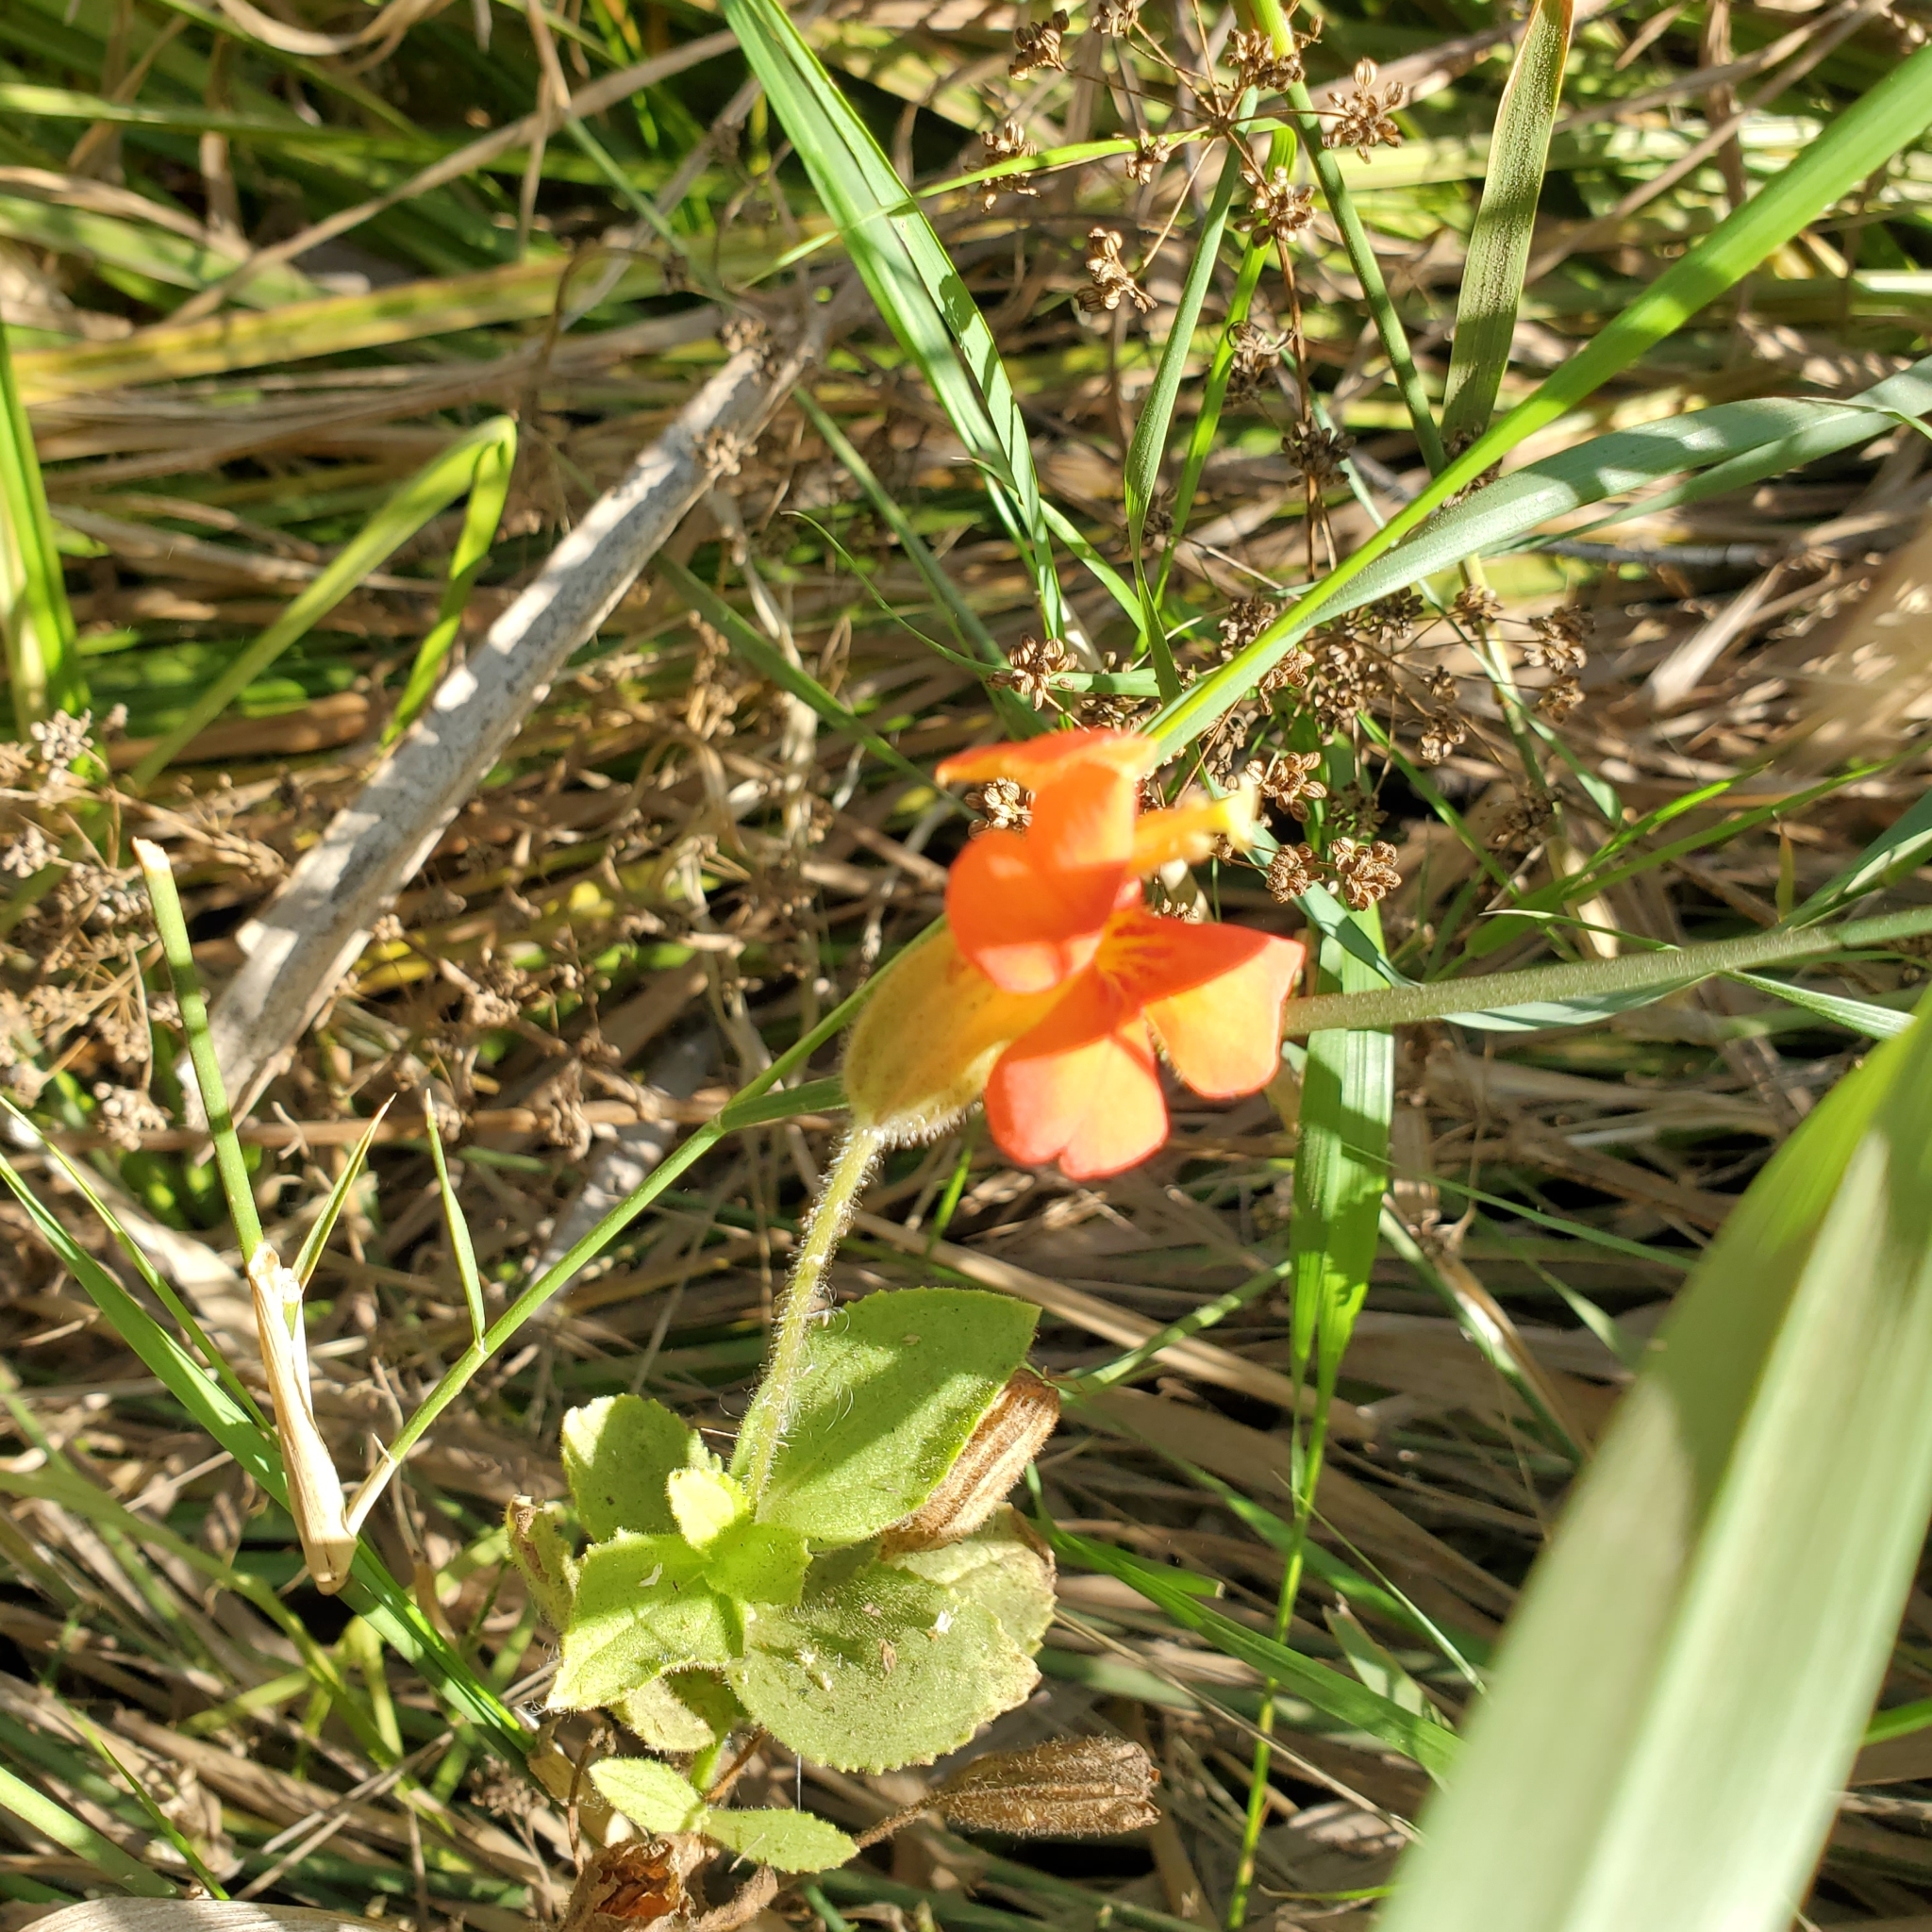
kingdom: Plantae
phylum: Tracheophyta
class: Magnoliopsida
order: Lamiales
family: Phrymaceae
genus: Erythranthe
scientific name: Erythranthe cardinalis
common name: Scarlet monkey-flower
